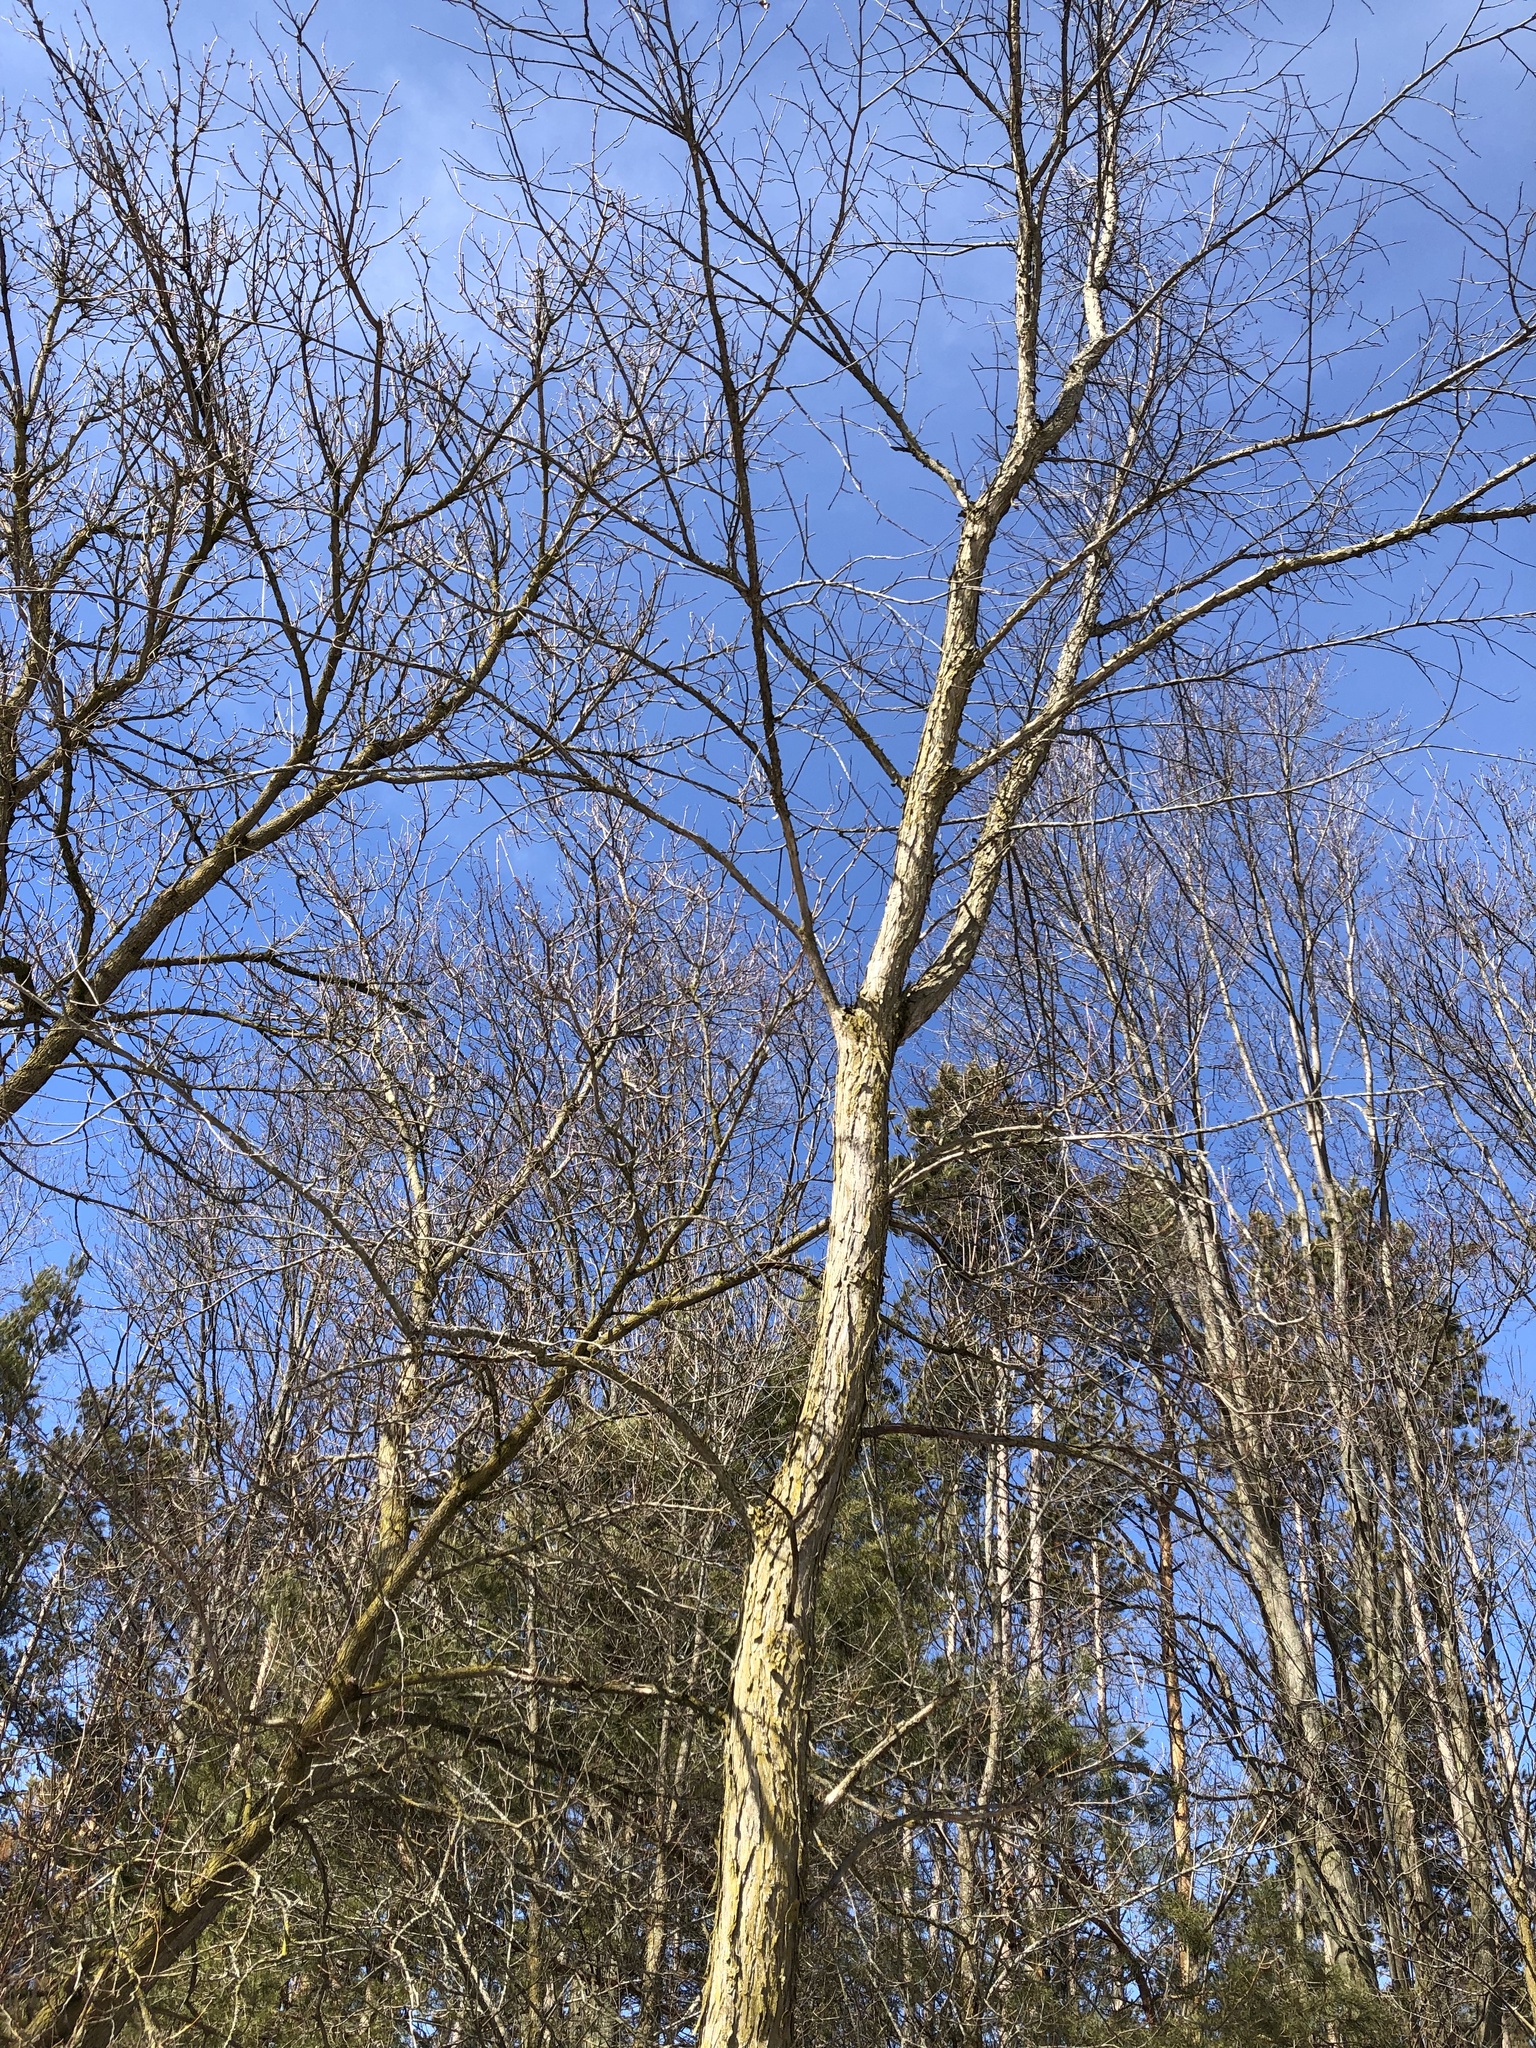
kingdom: Plantae
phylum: Tracheophyta
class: Magnoliopsida
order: Rosales
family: Ulmaceae
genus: Ulmus
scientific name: Ulmus americana
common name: American elm
